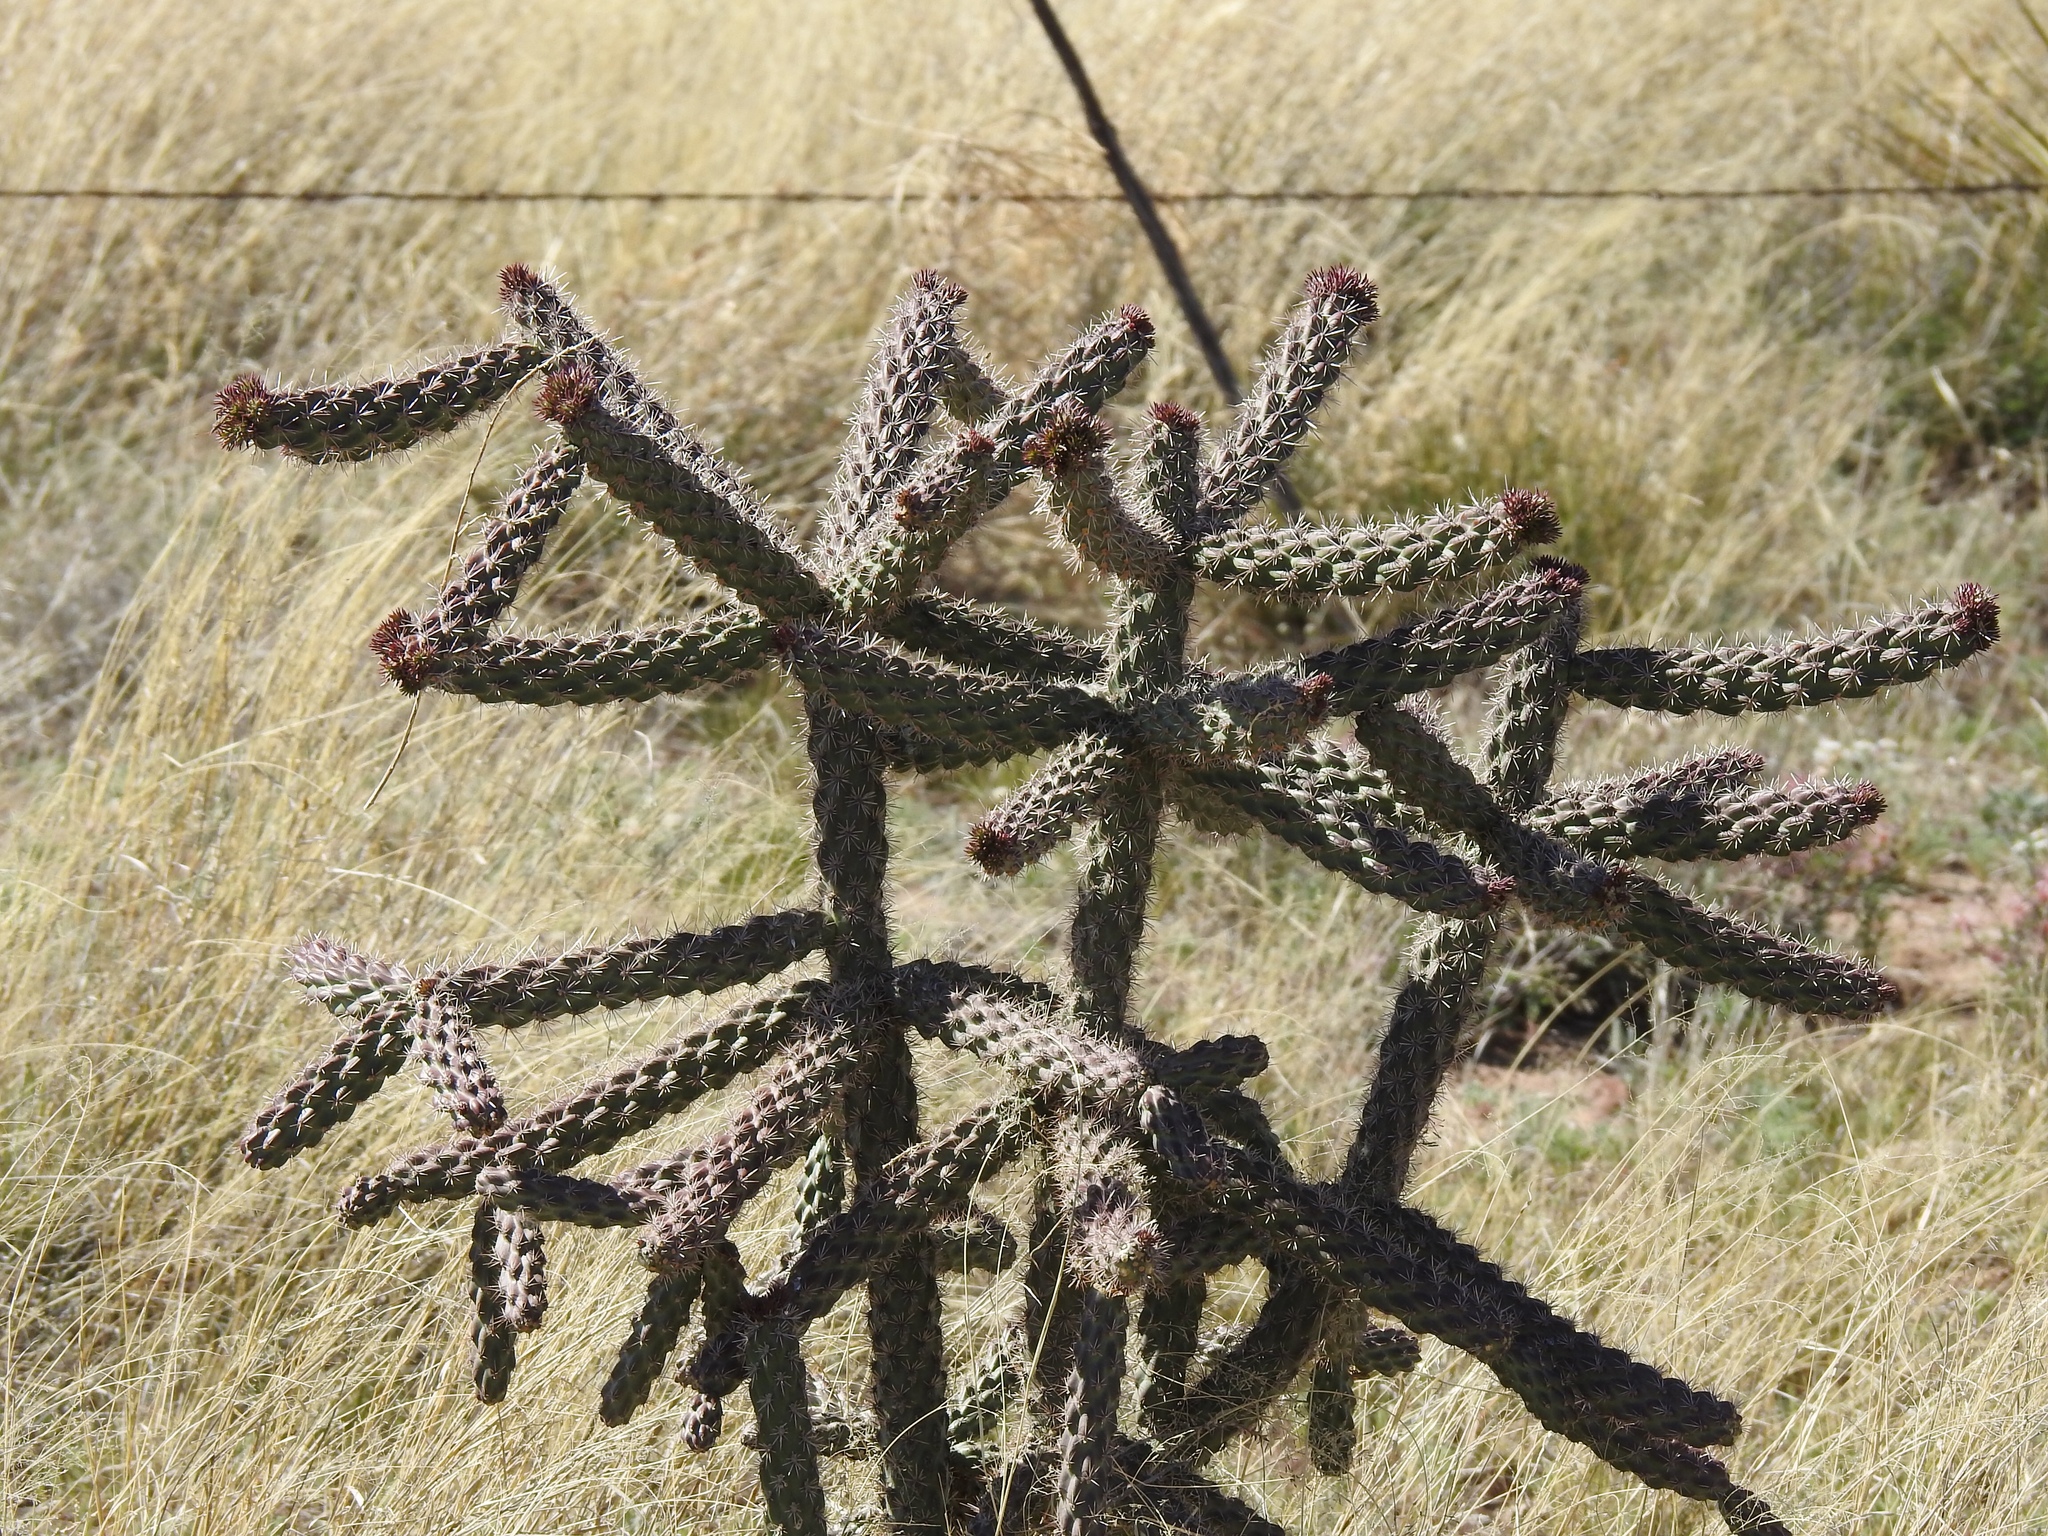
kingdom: Plantae
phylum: Tracheophyta
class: Magnoliopsida
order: Caryophyllales
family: Cactaceae
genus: Cylindropuntia
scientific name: Cylindropuntia imbricata
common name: Candelabrum cactus
